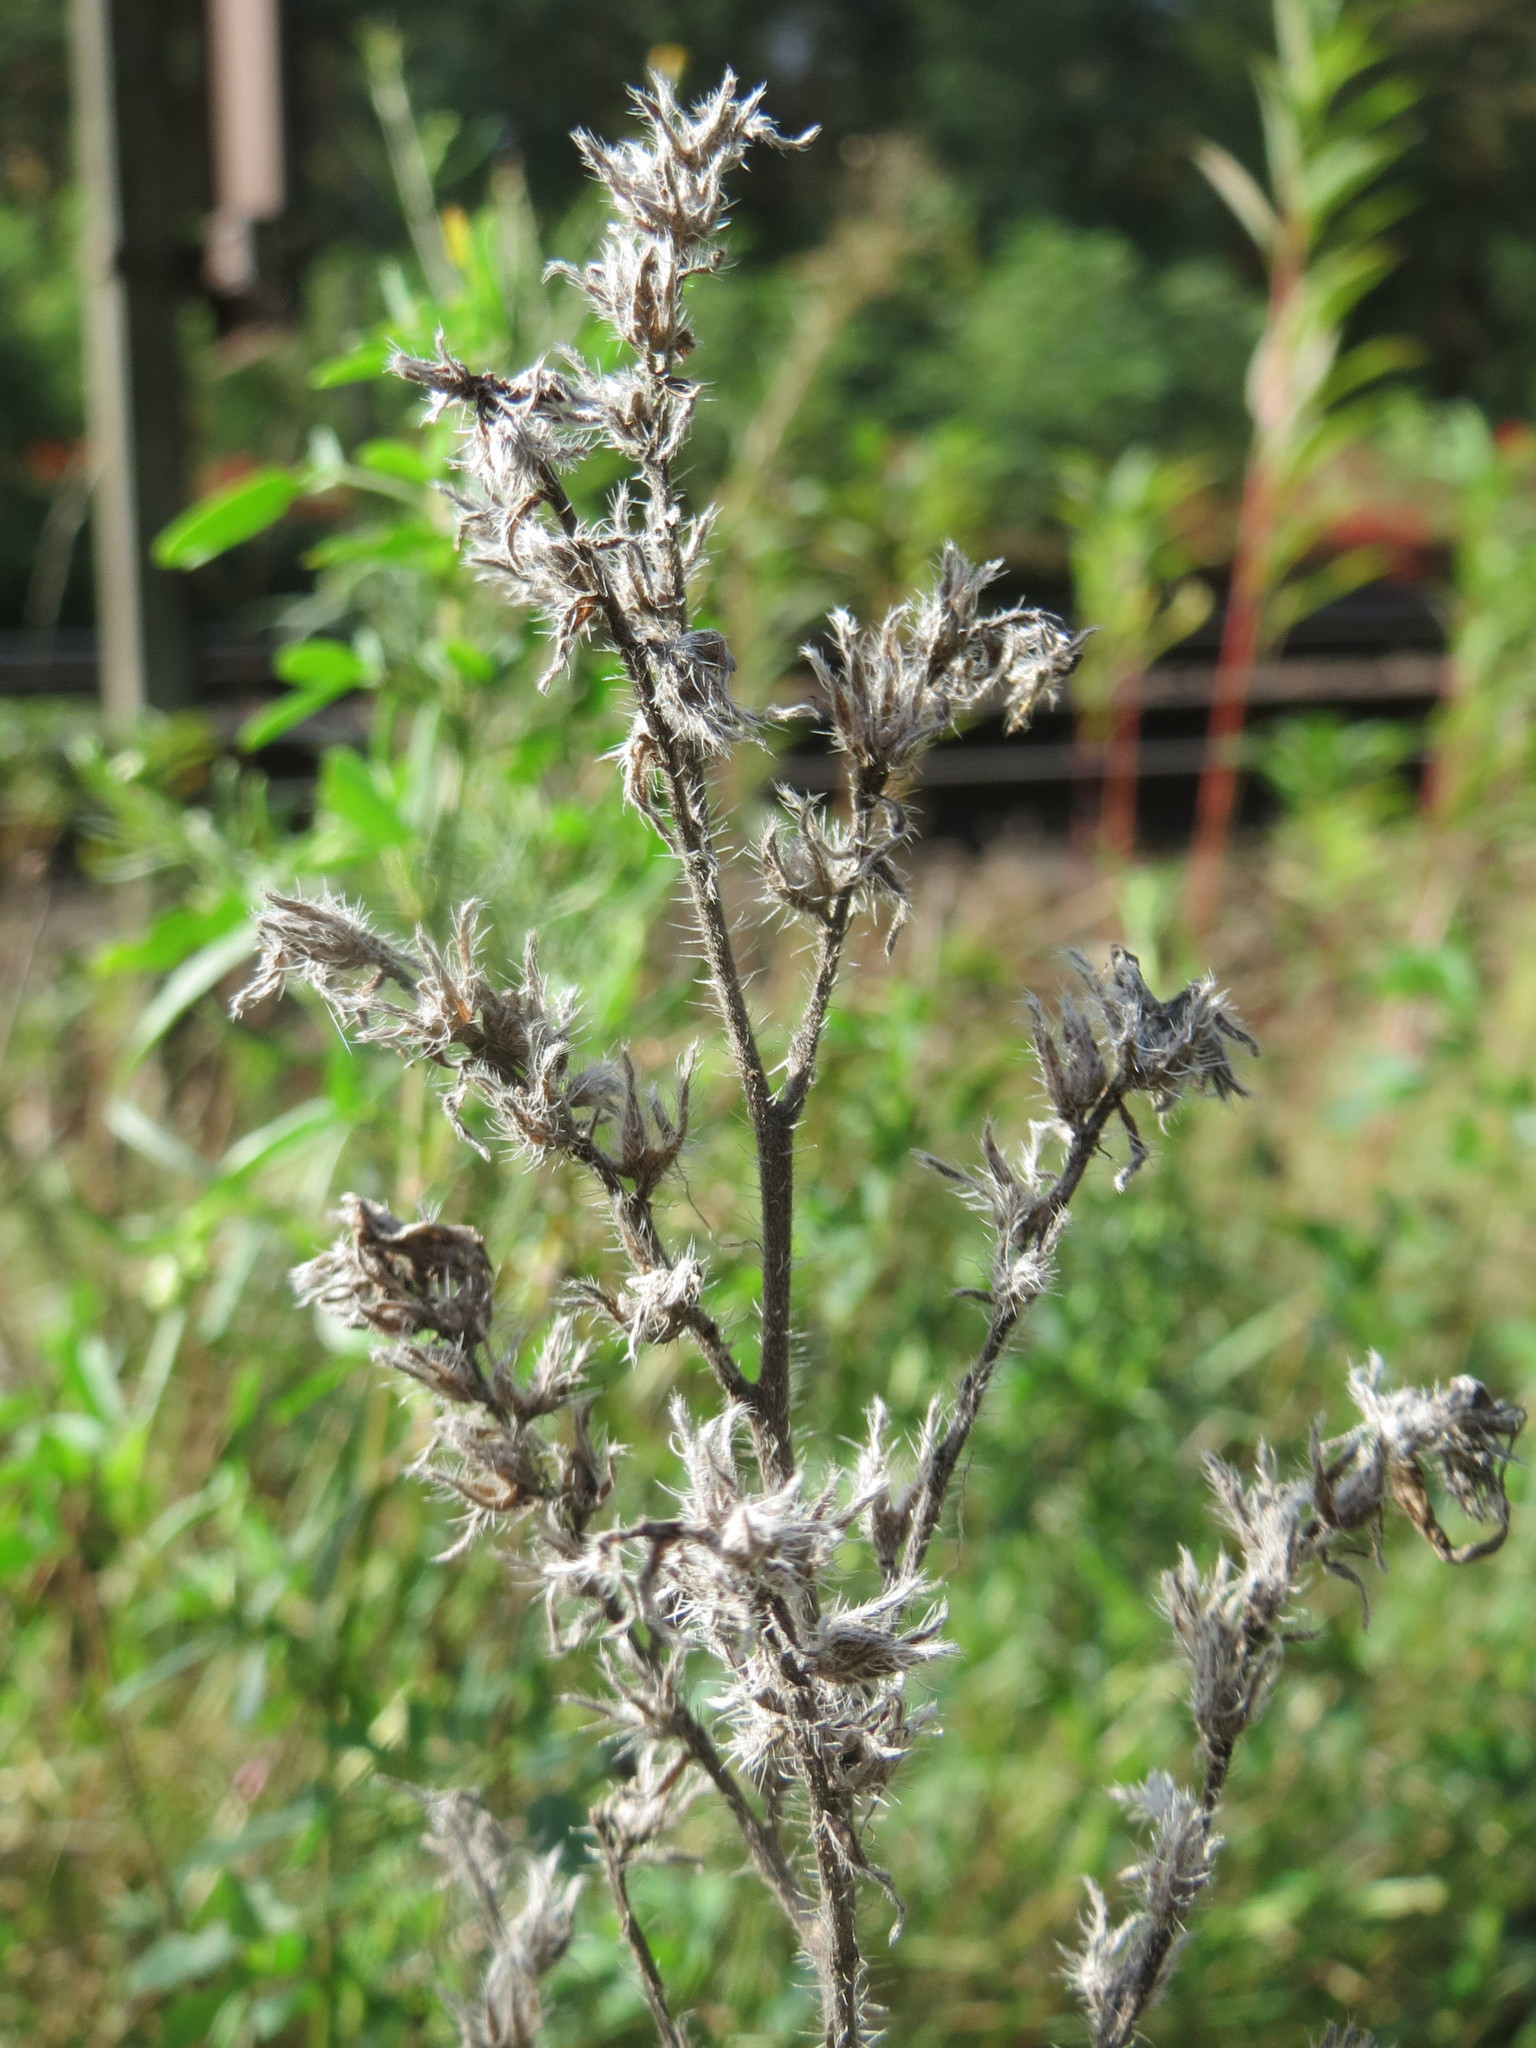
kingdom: Plantae
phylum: Tracheophyta
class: Magnoliopsida
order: Boraginales
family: Boraginaceae
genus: Echium
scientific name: Echium vulgare
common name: Common viper's bugloss
